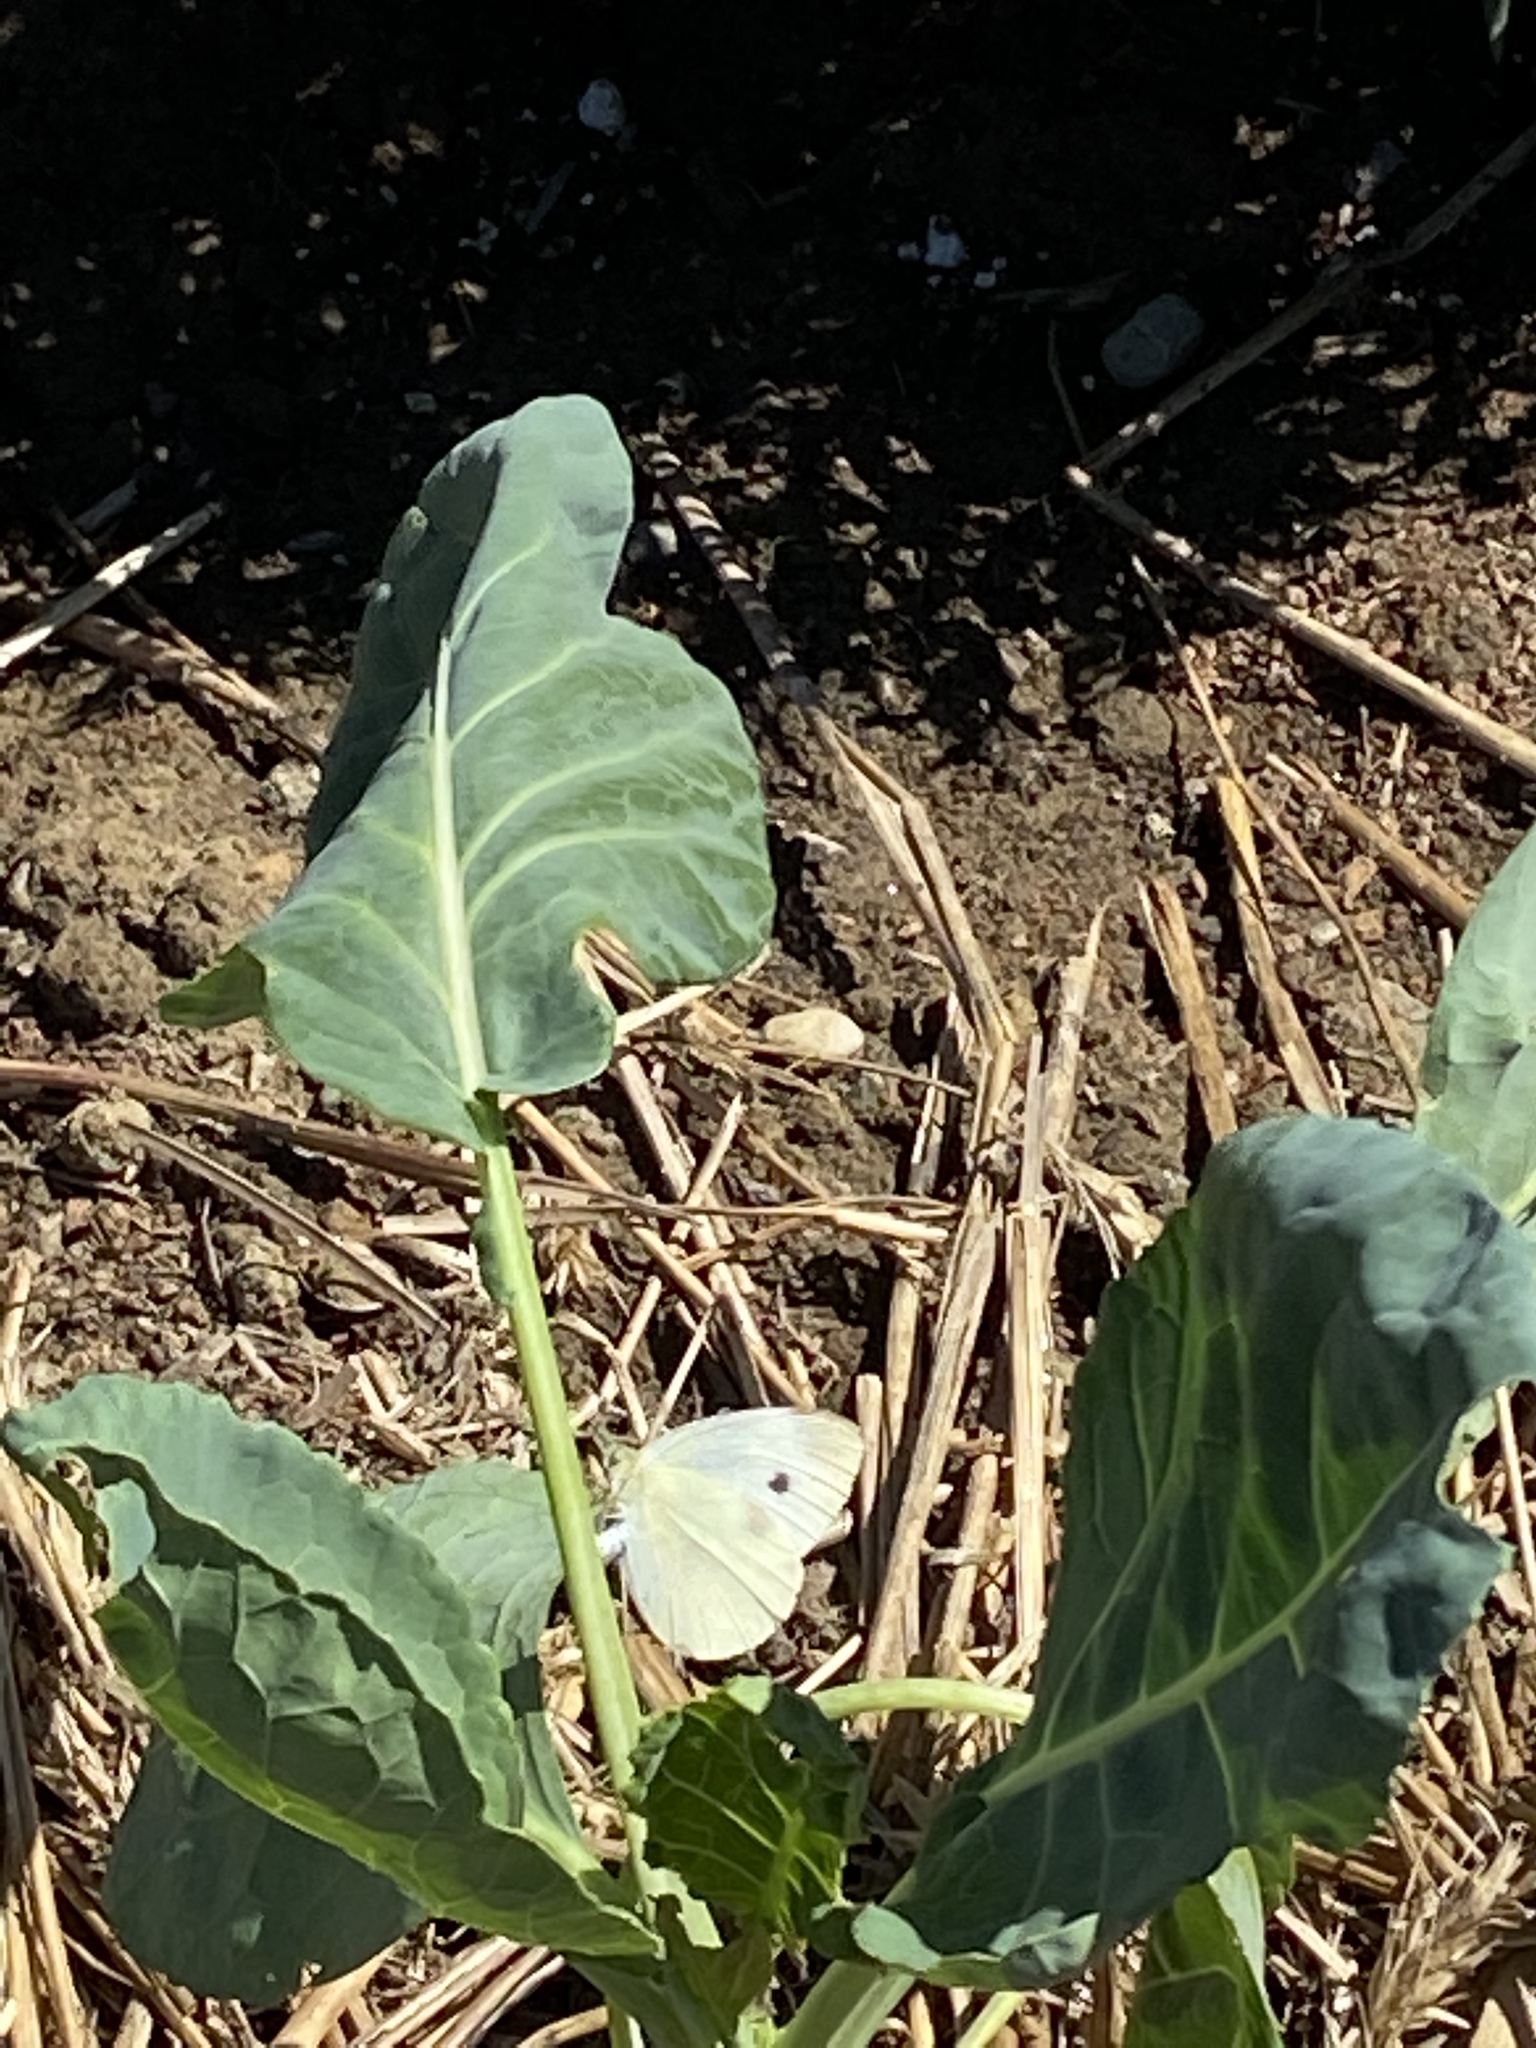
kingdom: Animalia
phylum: Arthropoda
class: Insecta
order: Lepidoptera
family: Pieridae
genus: Pieris
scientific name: Pieris rapae
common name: Small white
